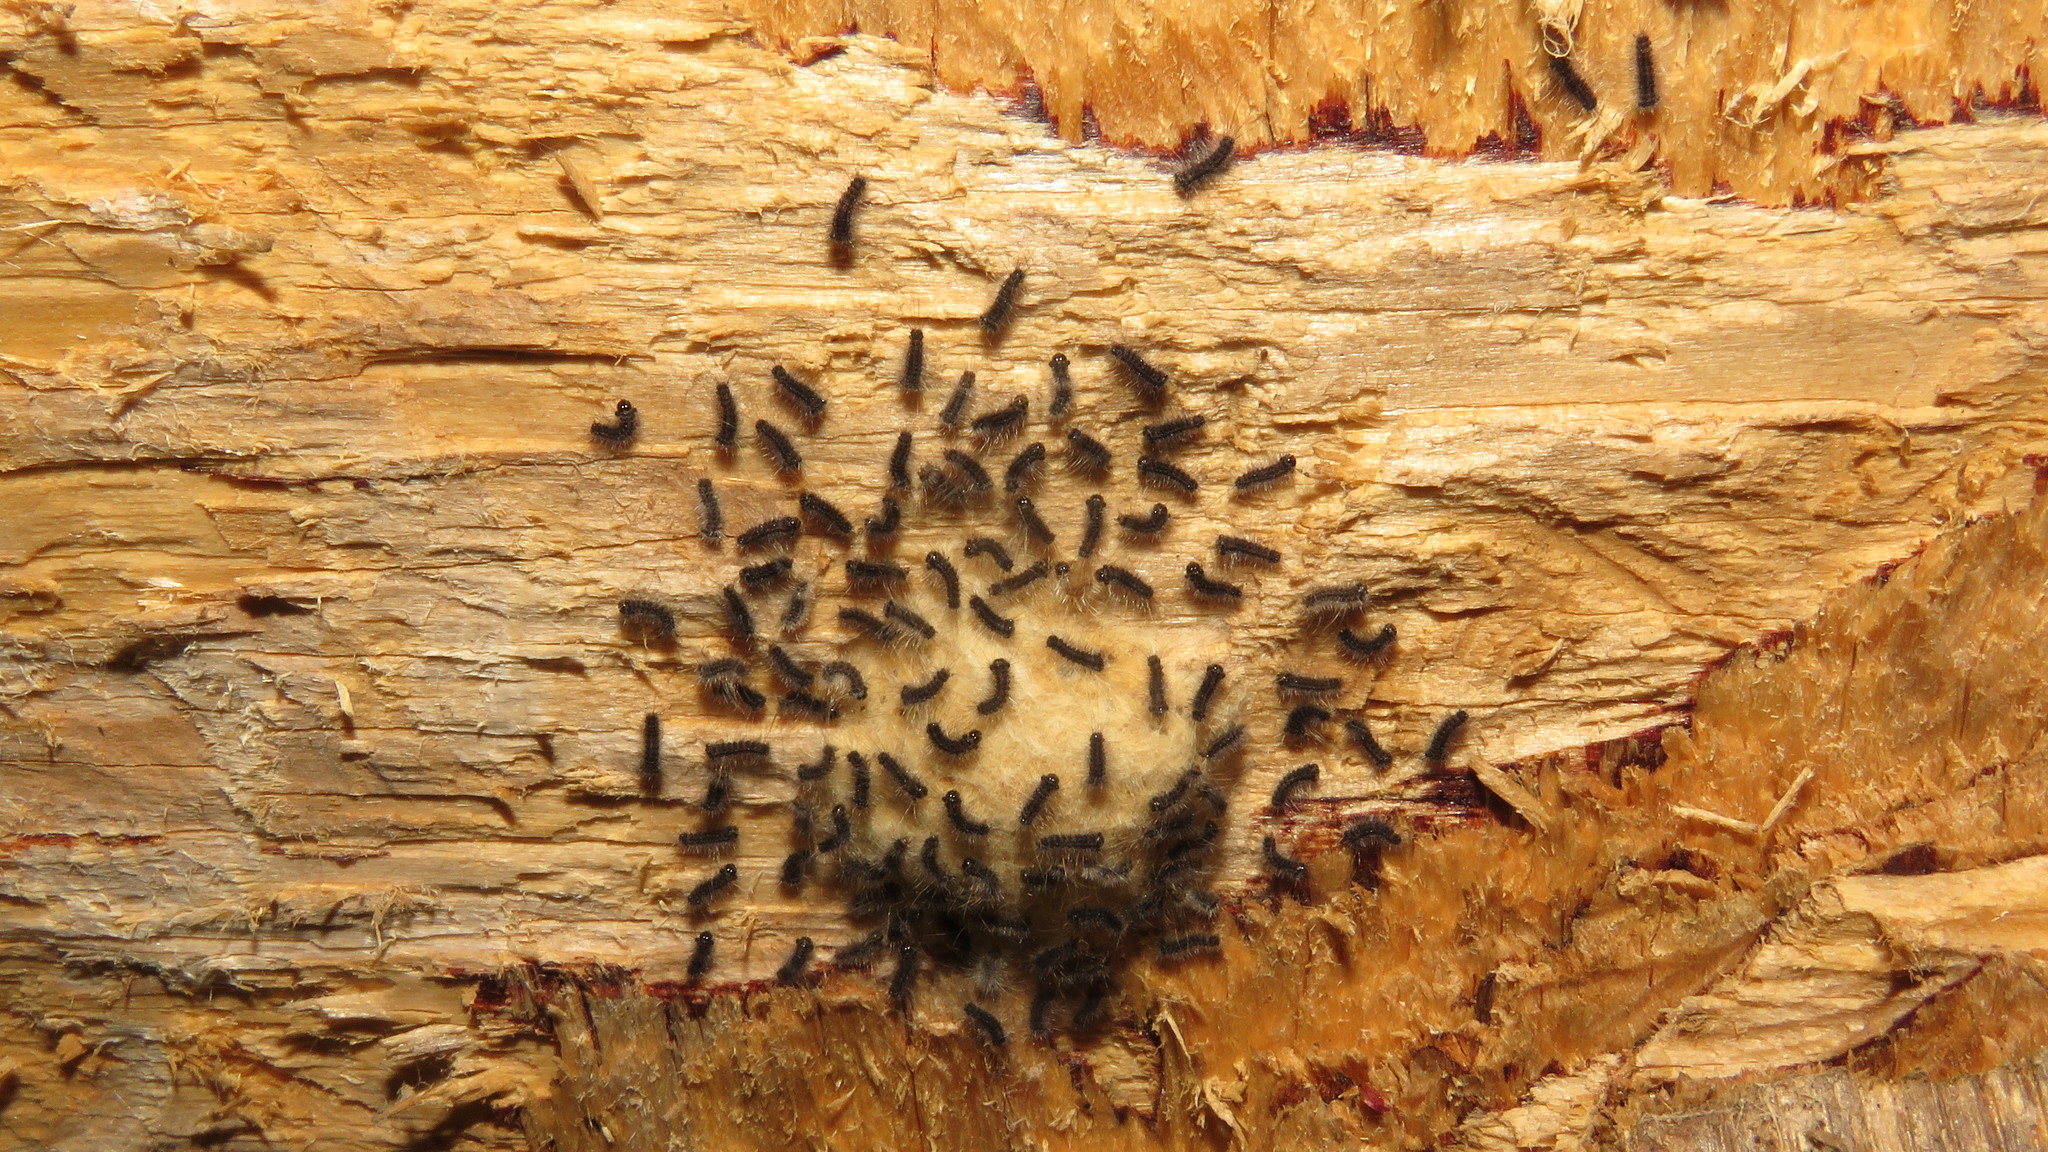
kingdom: Animalia
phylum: Arthropoda
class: Insecta
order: Lepidoptera
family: Erebidae
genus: Lymantria
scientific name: Lymantria dispar
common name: Gypsy moth
